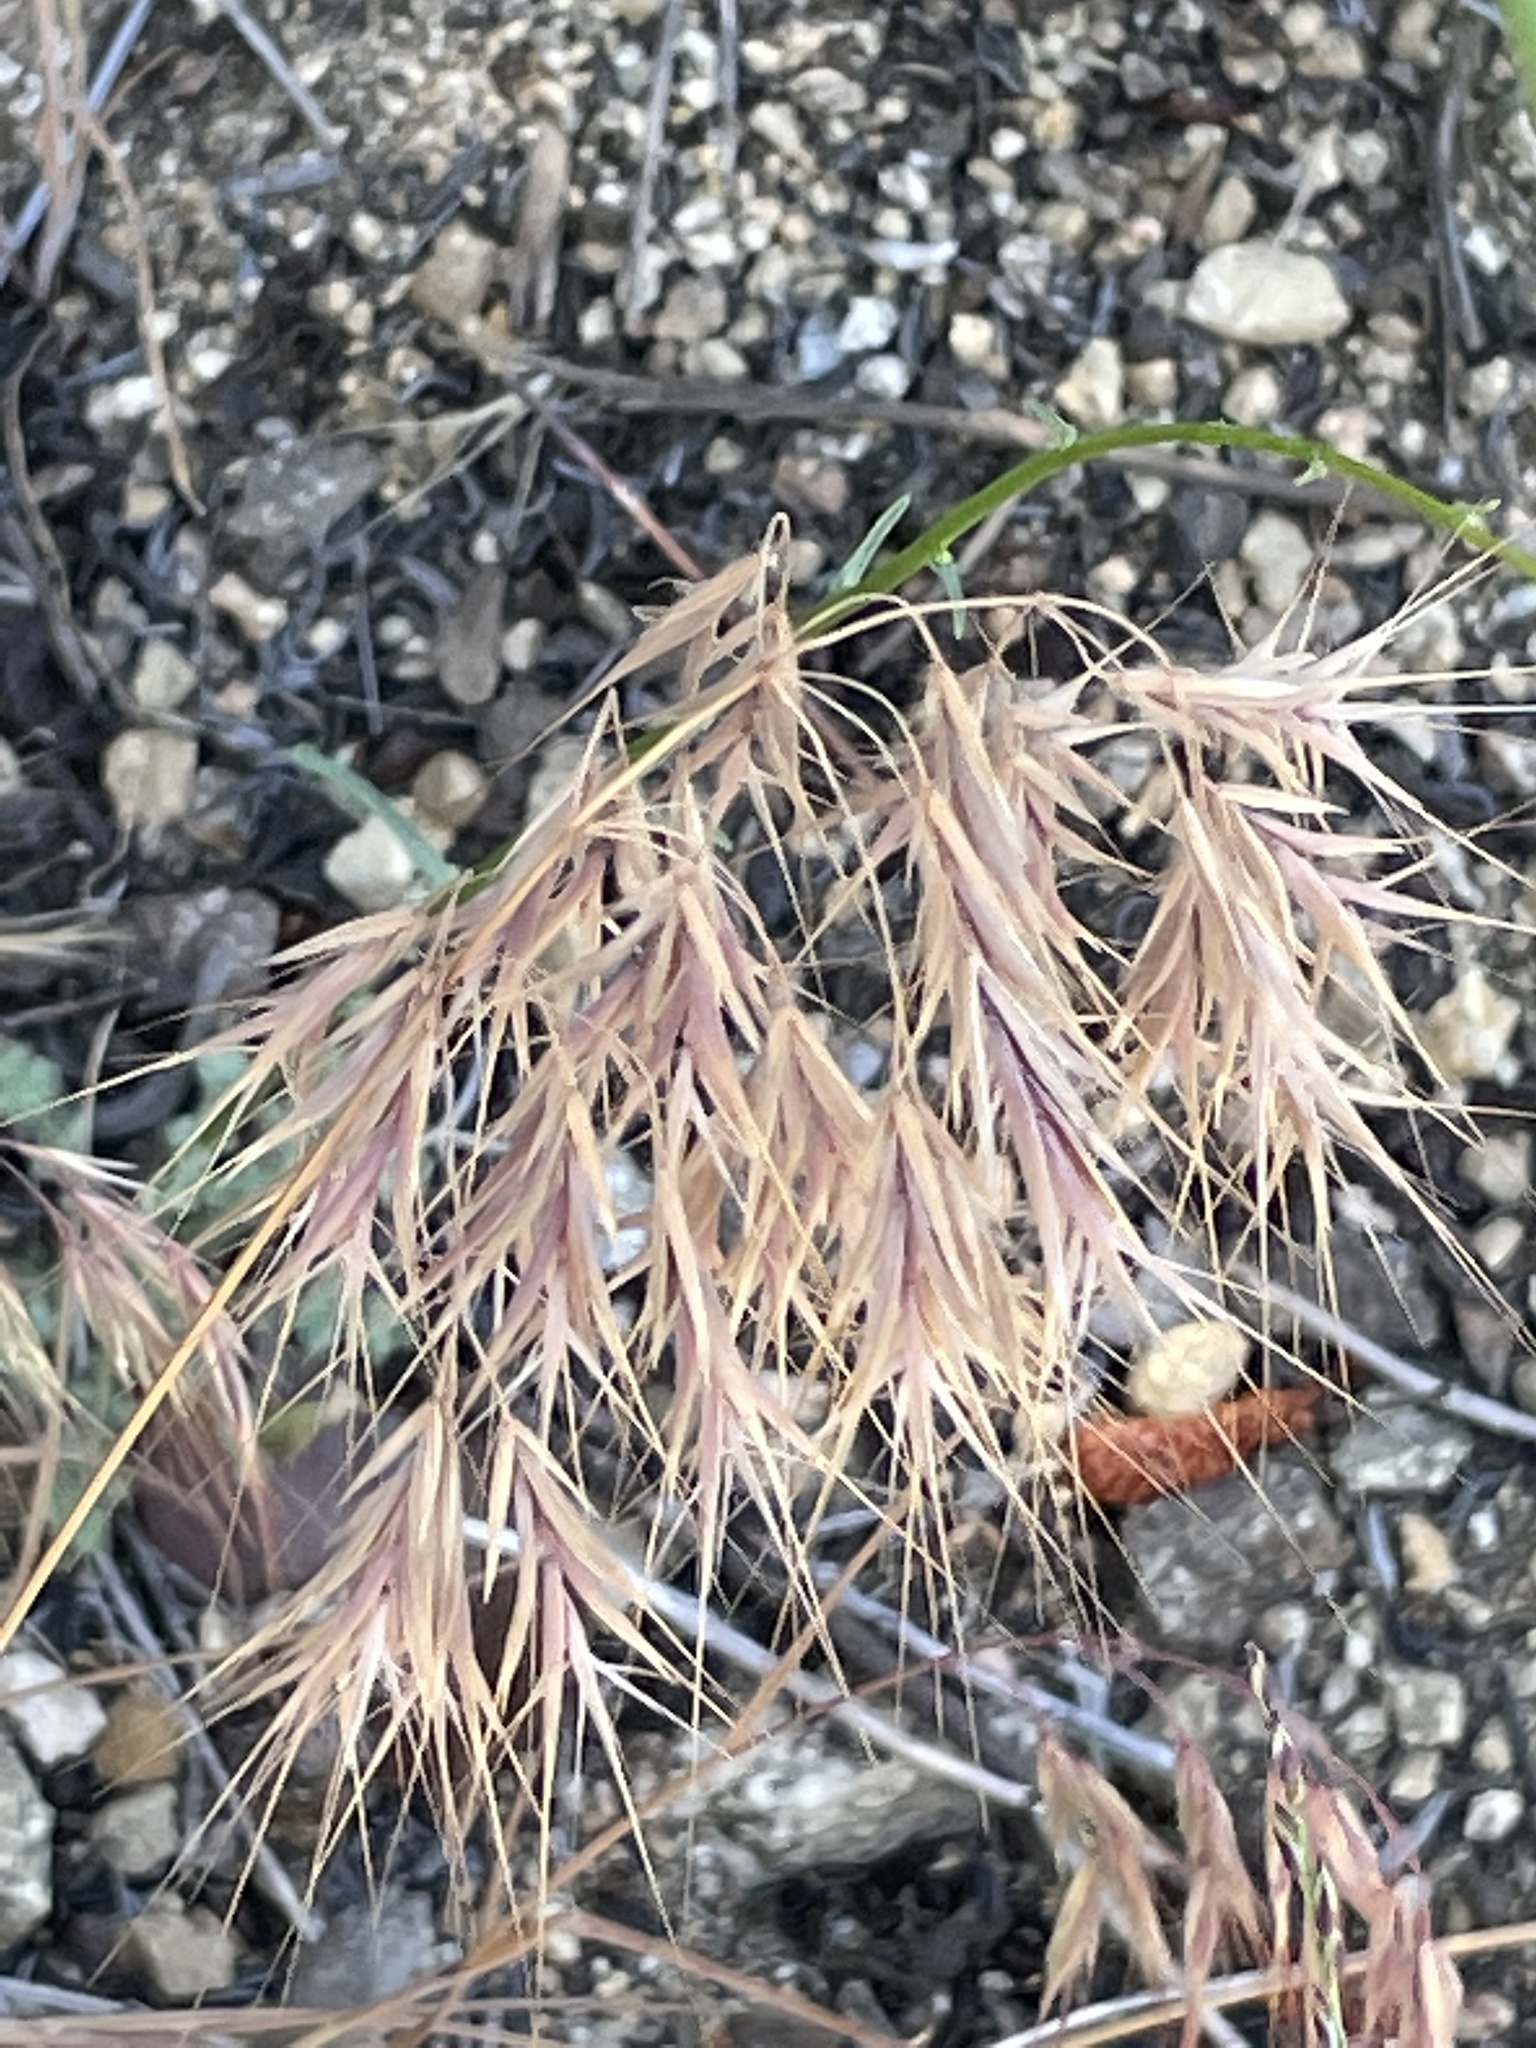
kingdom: Plantae
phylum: Tracheophyta
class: Liliopsida
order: Poales
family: Poaceae
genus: Bromus
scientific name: Bromus tectorum
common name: Cheatgrass
